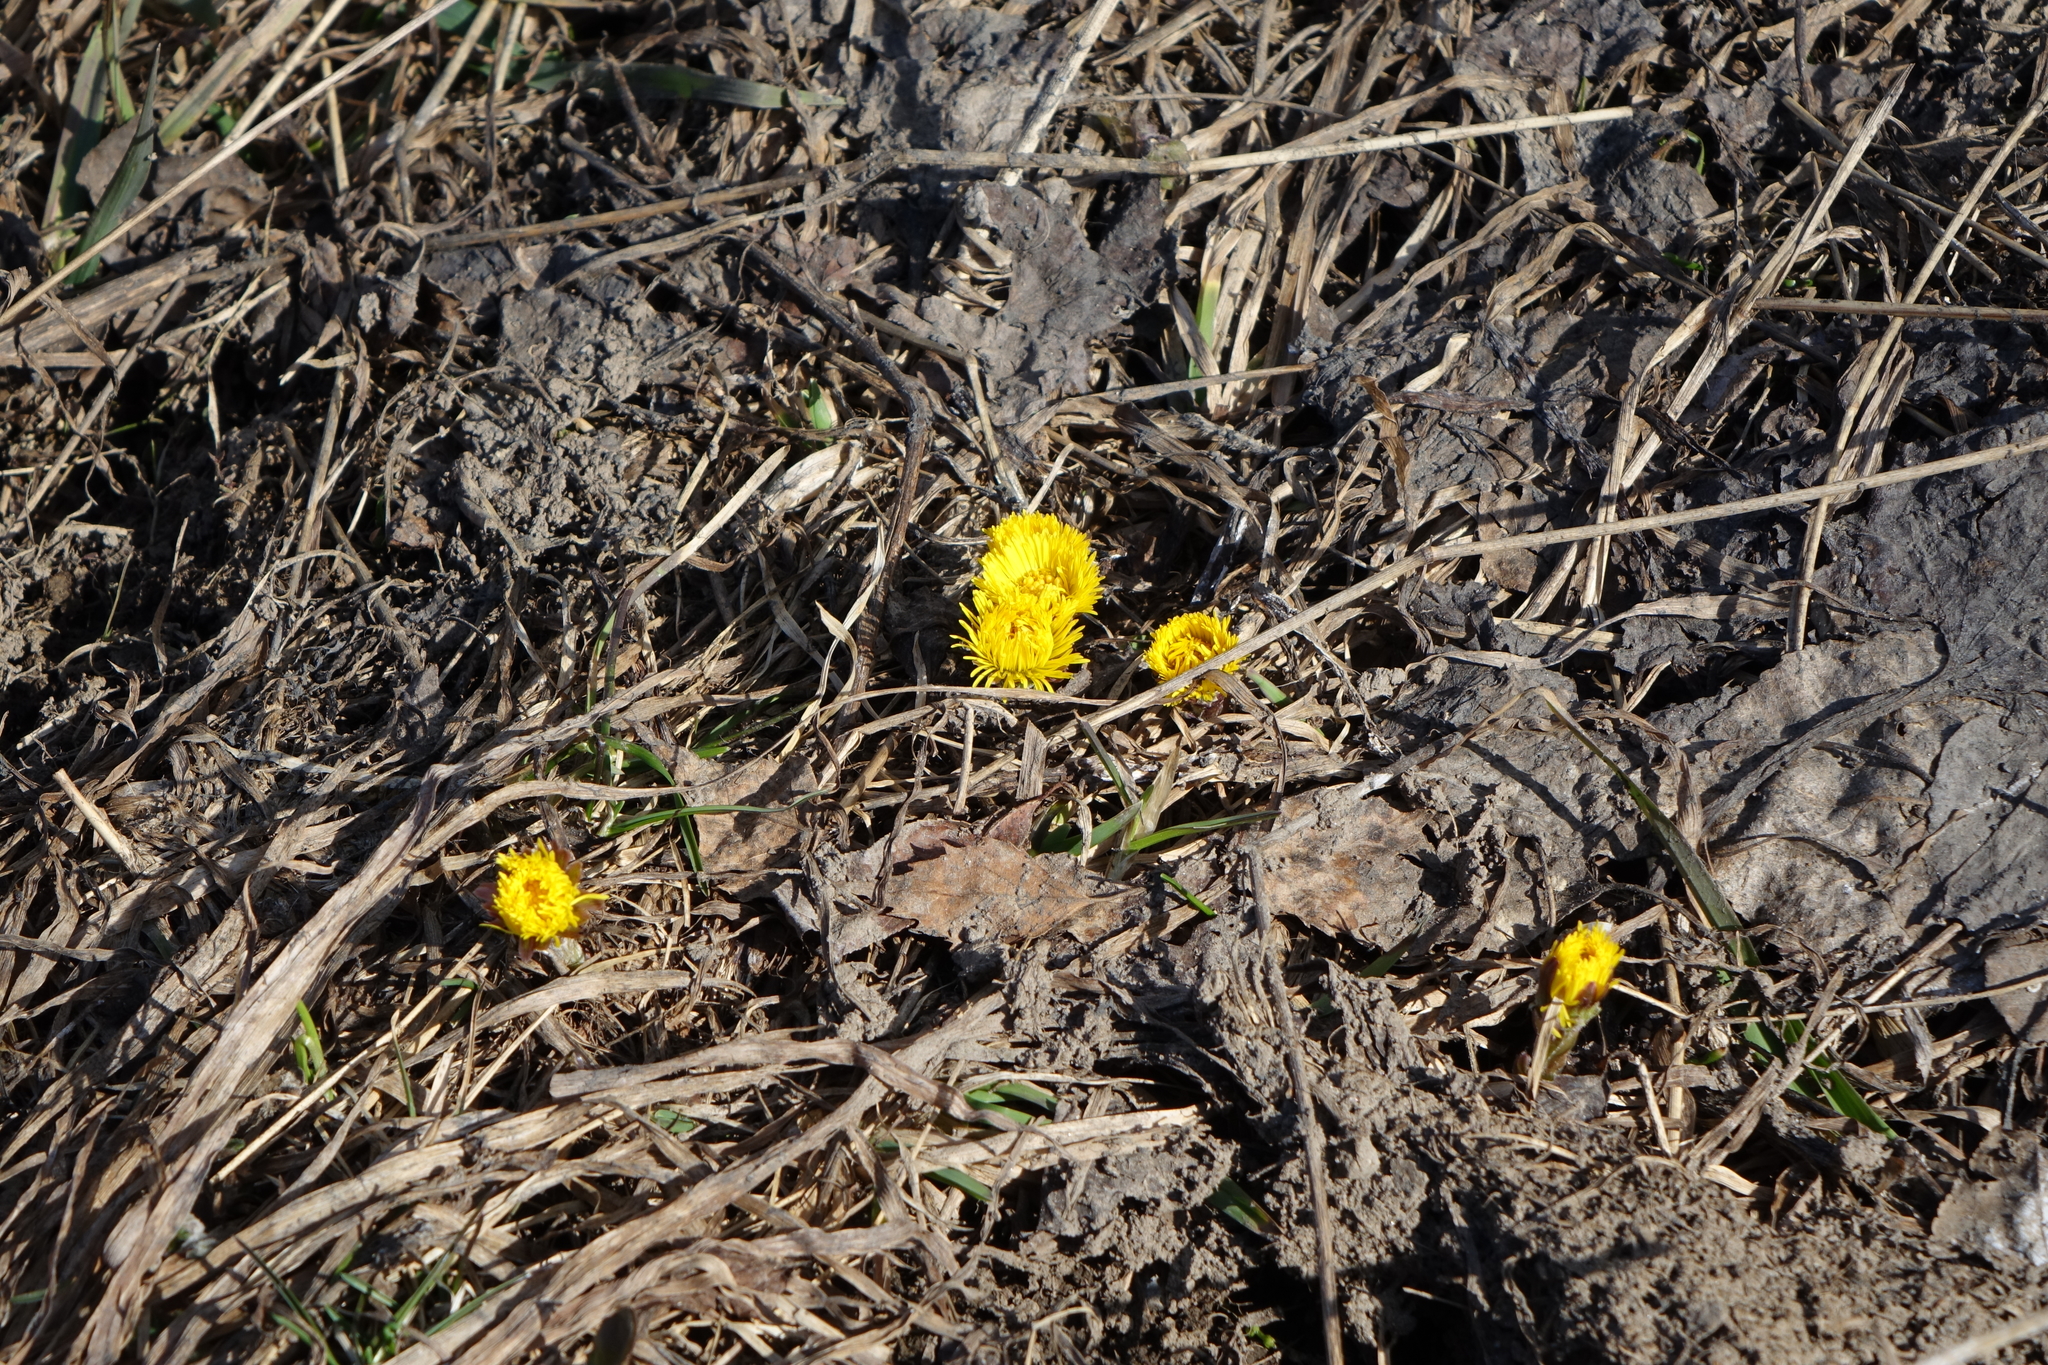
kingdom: Plantae
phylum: Tracheophyta
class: Magnoliopsida
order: Asterales
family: Asteraceae
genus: Tussilago
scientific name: Tussilago farfara
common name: Coltsfoot
